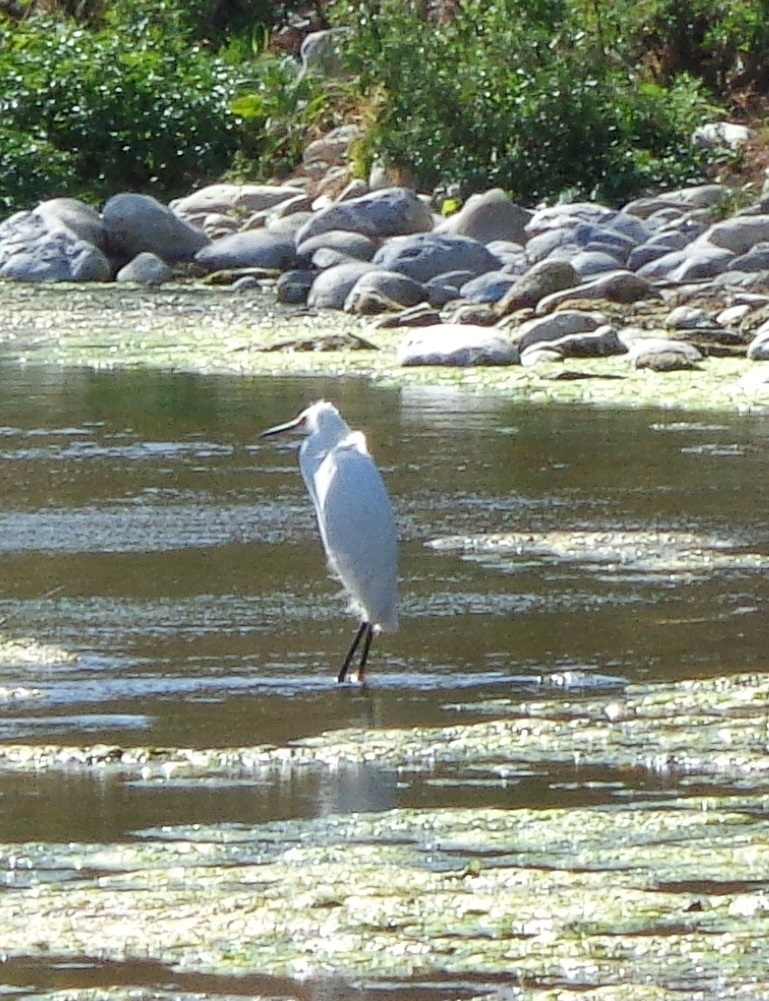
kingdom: Animalia
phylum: Chordata
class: Aves
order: Pelecaniformes
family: Ardeidae
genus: Egretta
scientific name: Egretta thula
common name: Snowy egret
